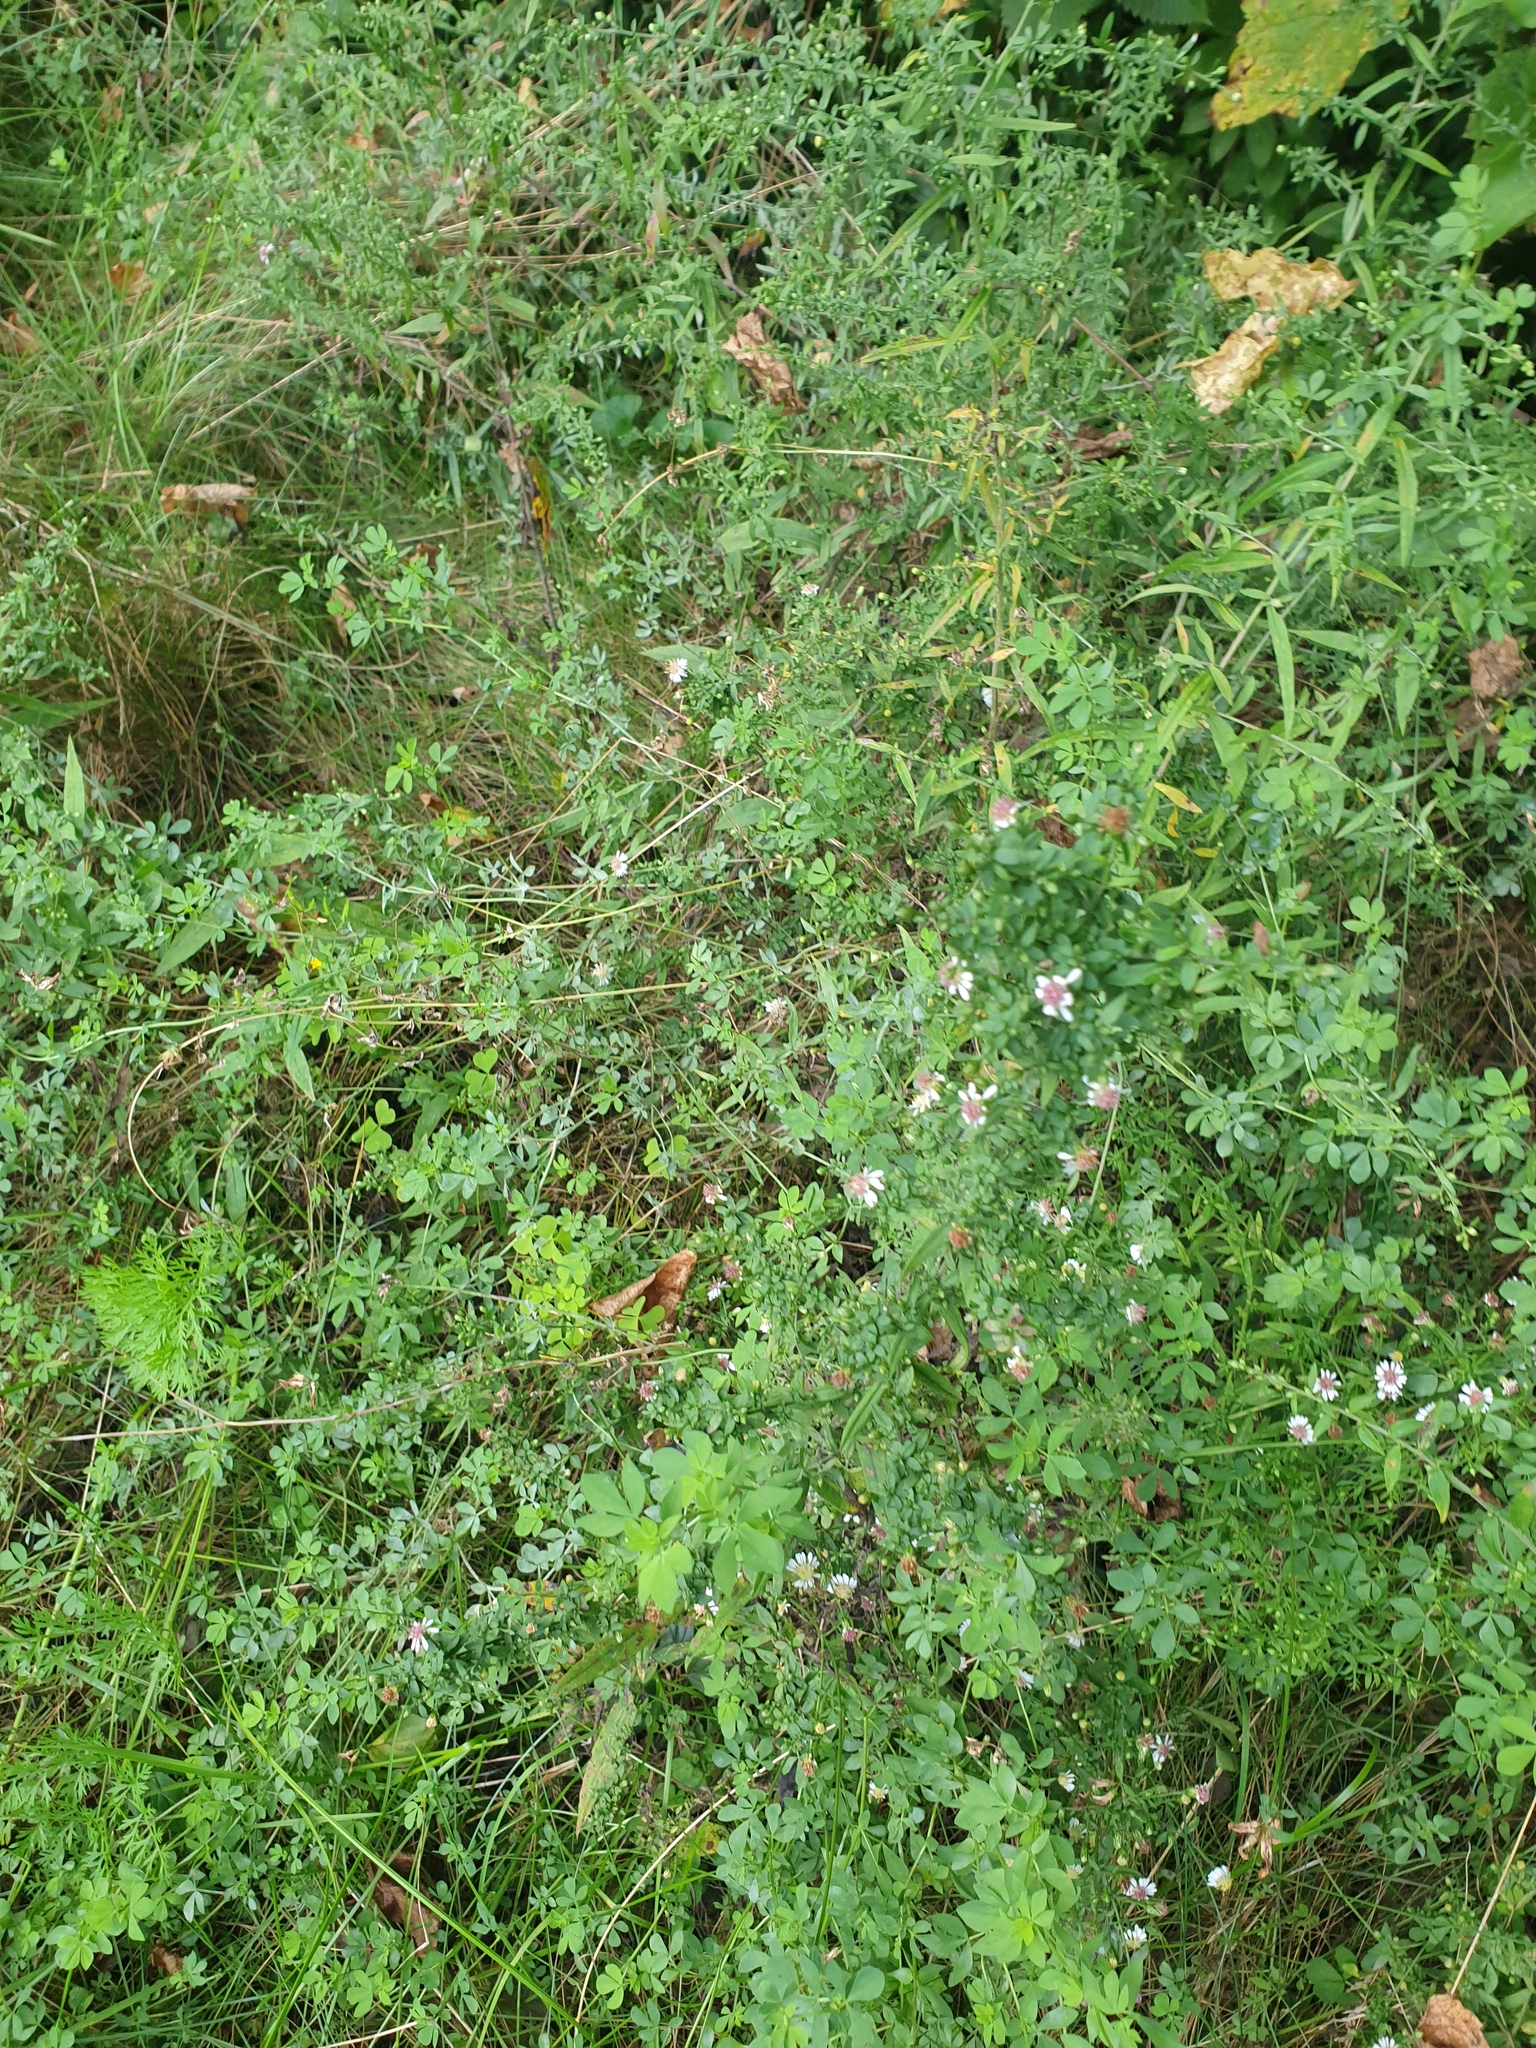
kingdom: Plantae
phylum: Tracheophyta
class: Magnoliopsida
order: Asterales
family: Asteraceae
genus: Symphyotrichum
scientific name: Symphyotrichum lateriflorum
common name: Calico aster
